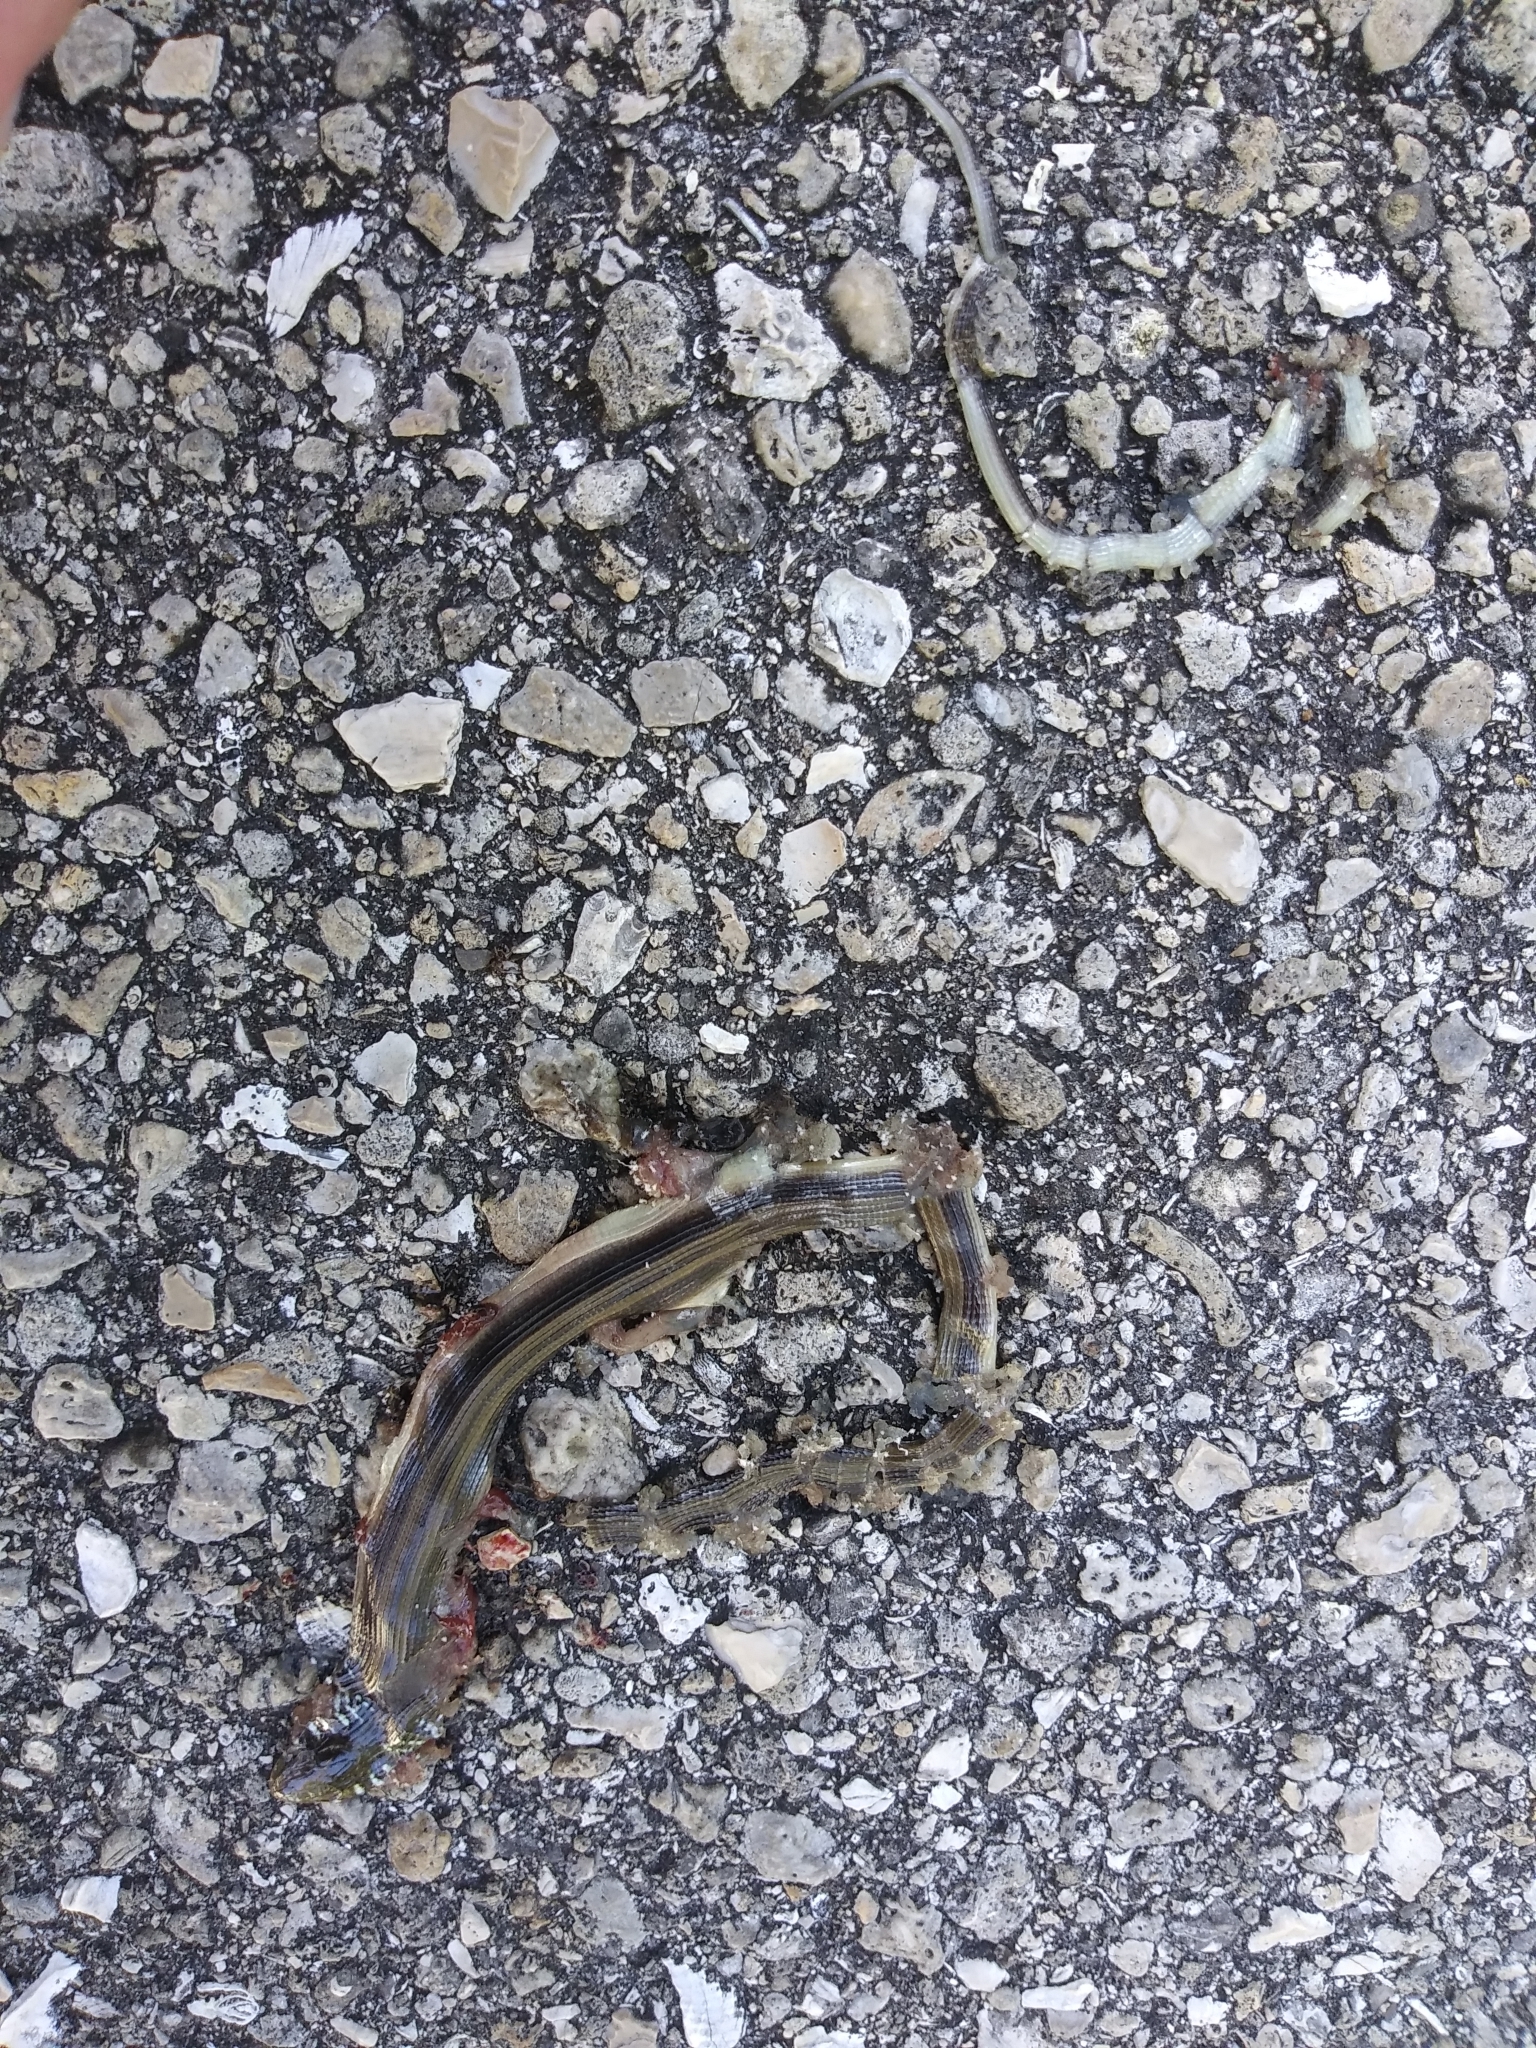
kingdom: Animalia
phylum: Chordata
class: Squamata
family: Anguidae
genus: Ophisaurus
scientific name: Ophisaurus ventralis
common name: Eastern glass lizard
